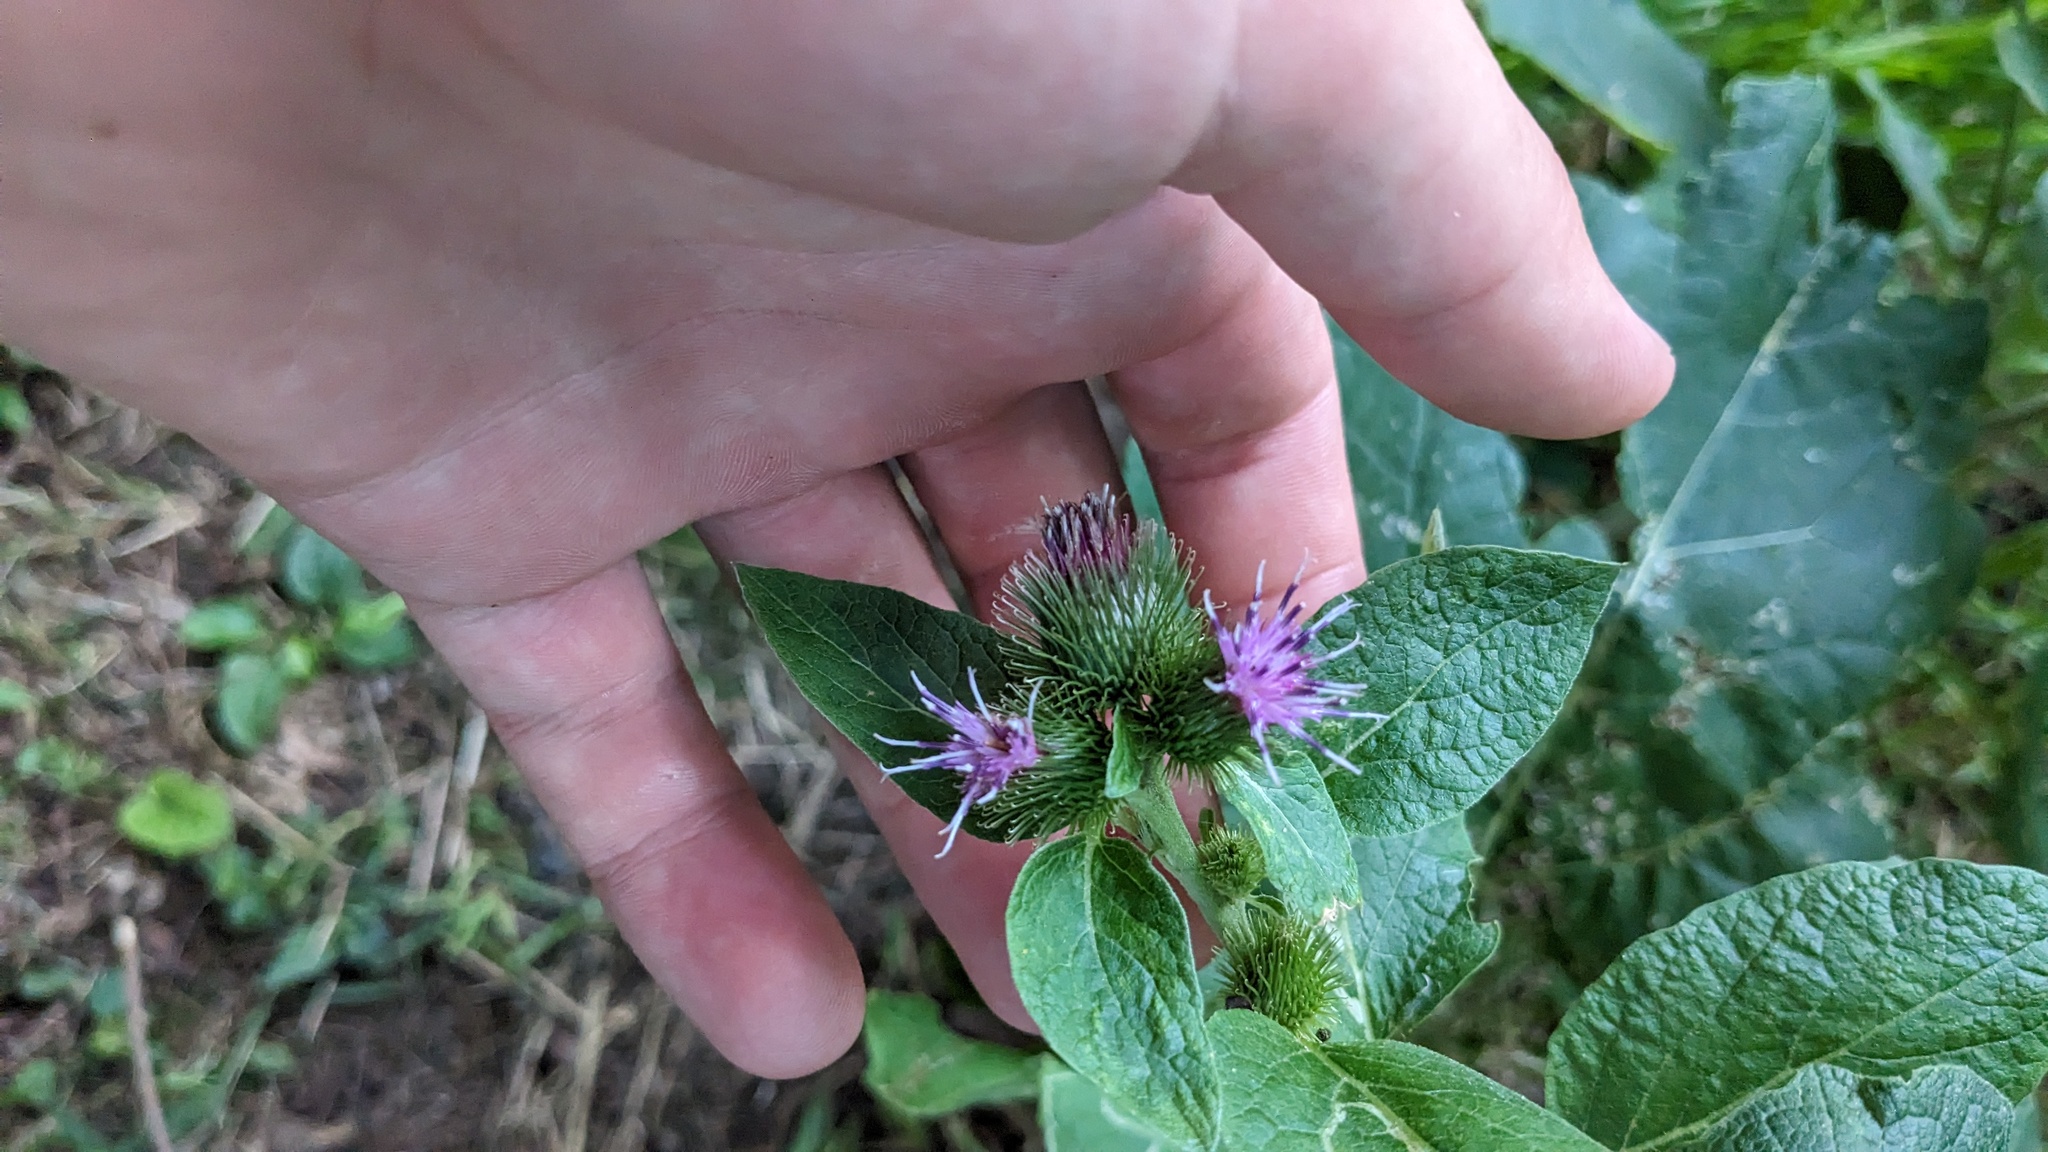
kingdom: Plantae
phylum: Tracheophyta
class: Magnoliopsida
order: Asterales
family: Asteraceae
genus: Arctium
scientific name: Arctium minus
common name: Lesser burdock
